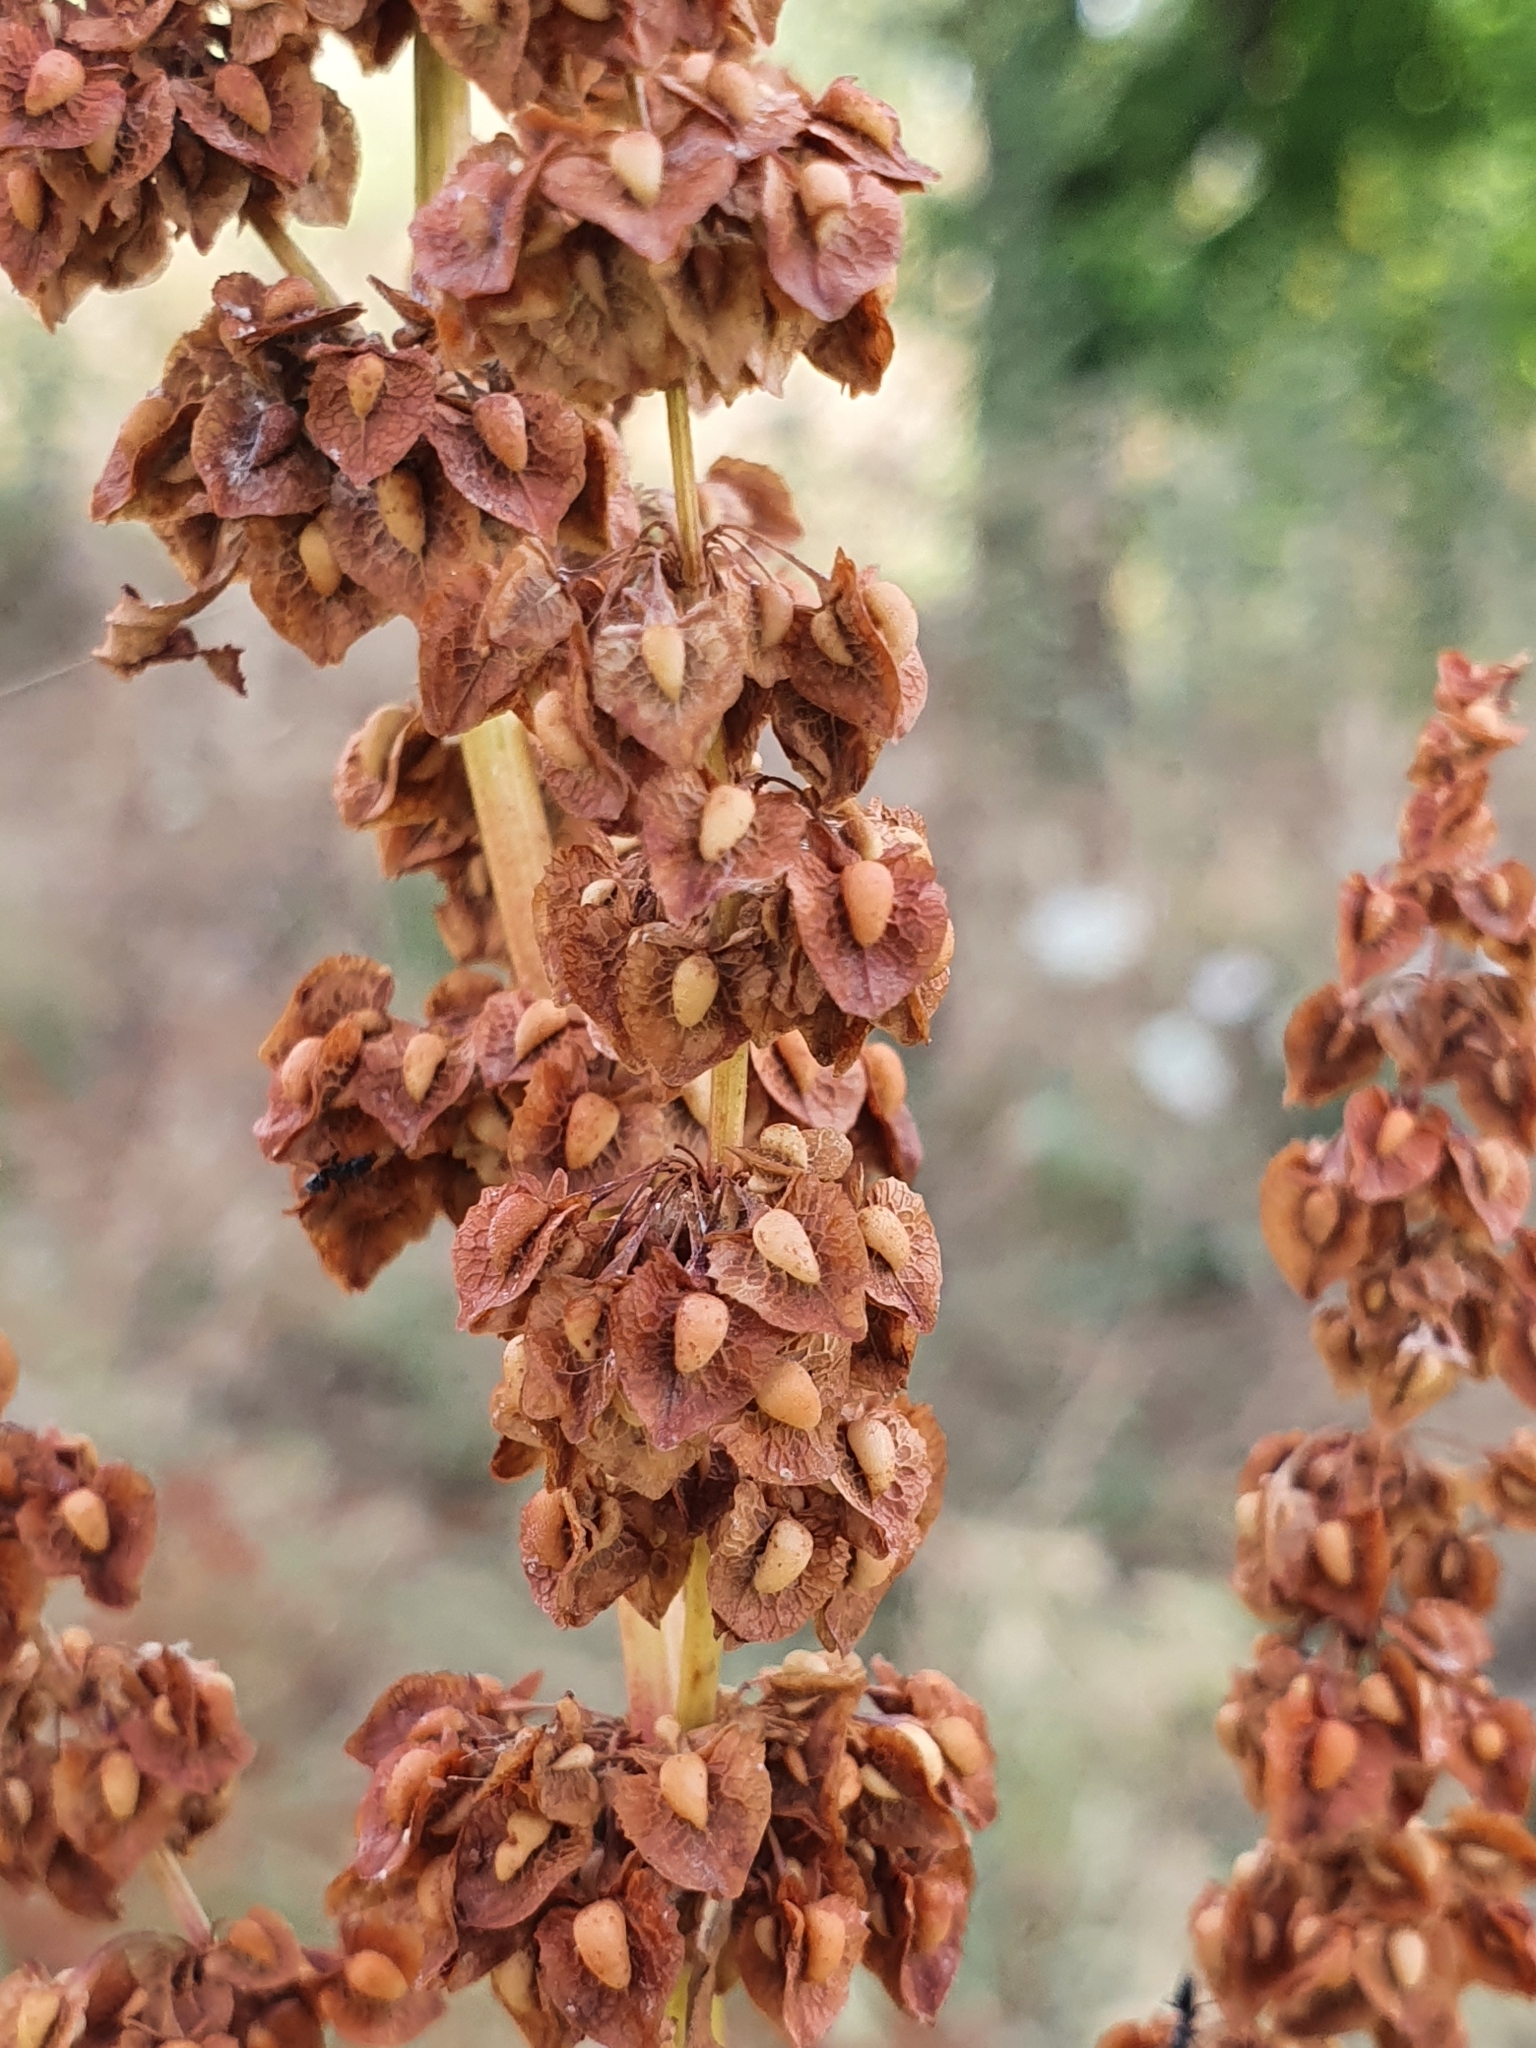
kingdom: Plantae
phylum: Tracheophyta
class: Magnoliopsida
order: Caryophyllales
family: Polygonaceae
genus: Rumex
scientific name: Rumex crispus
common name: Curled dock
